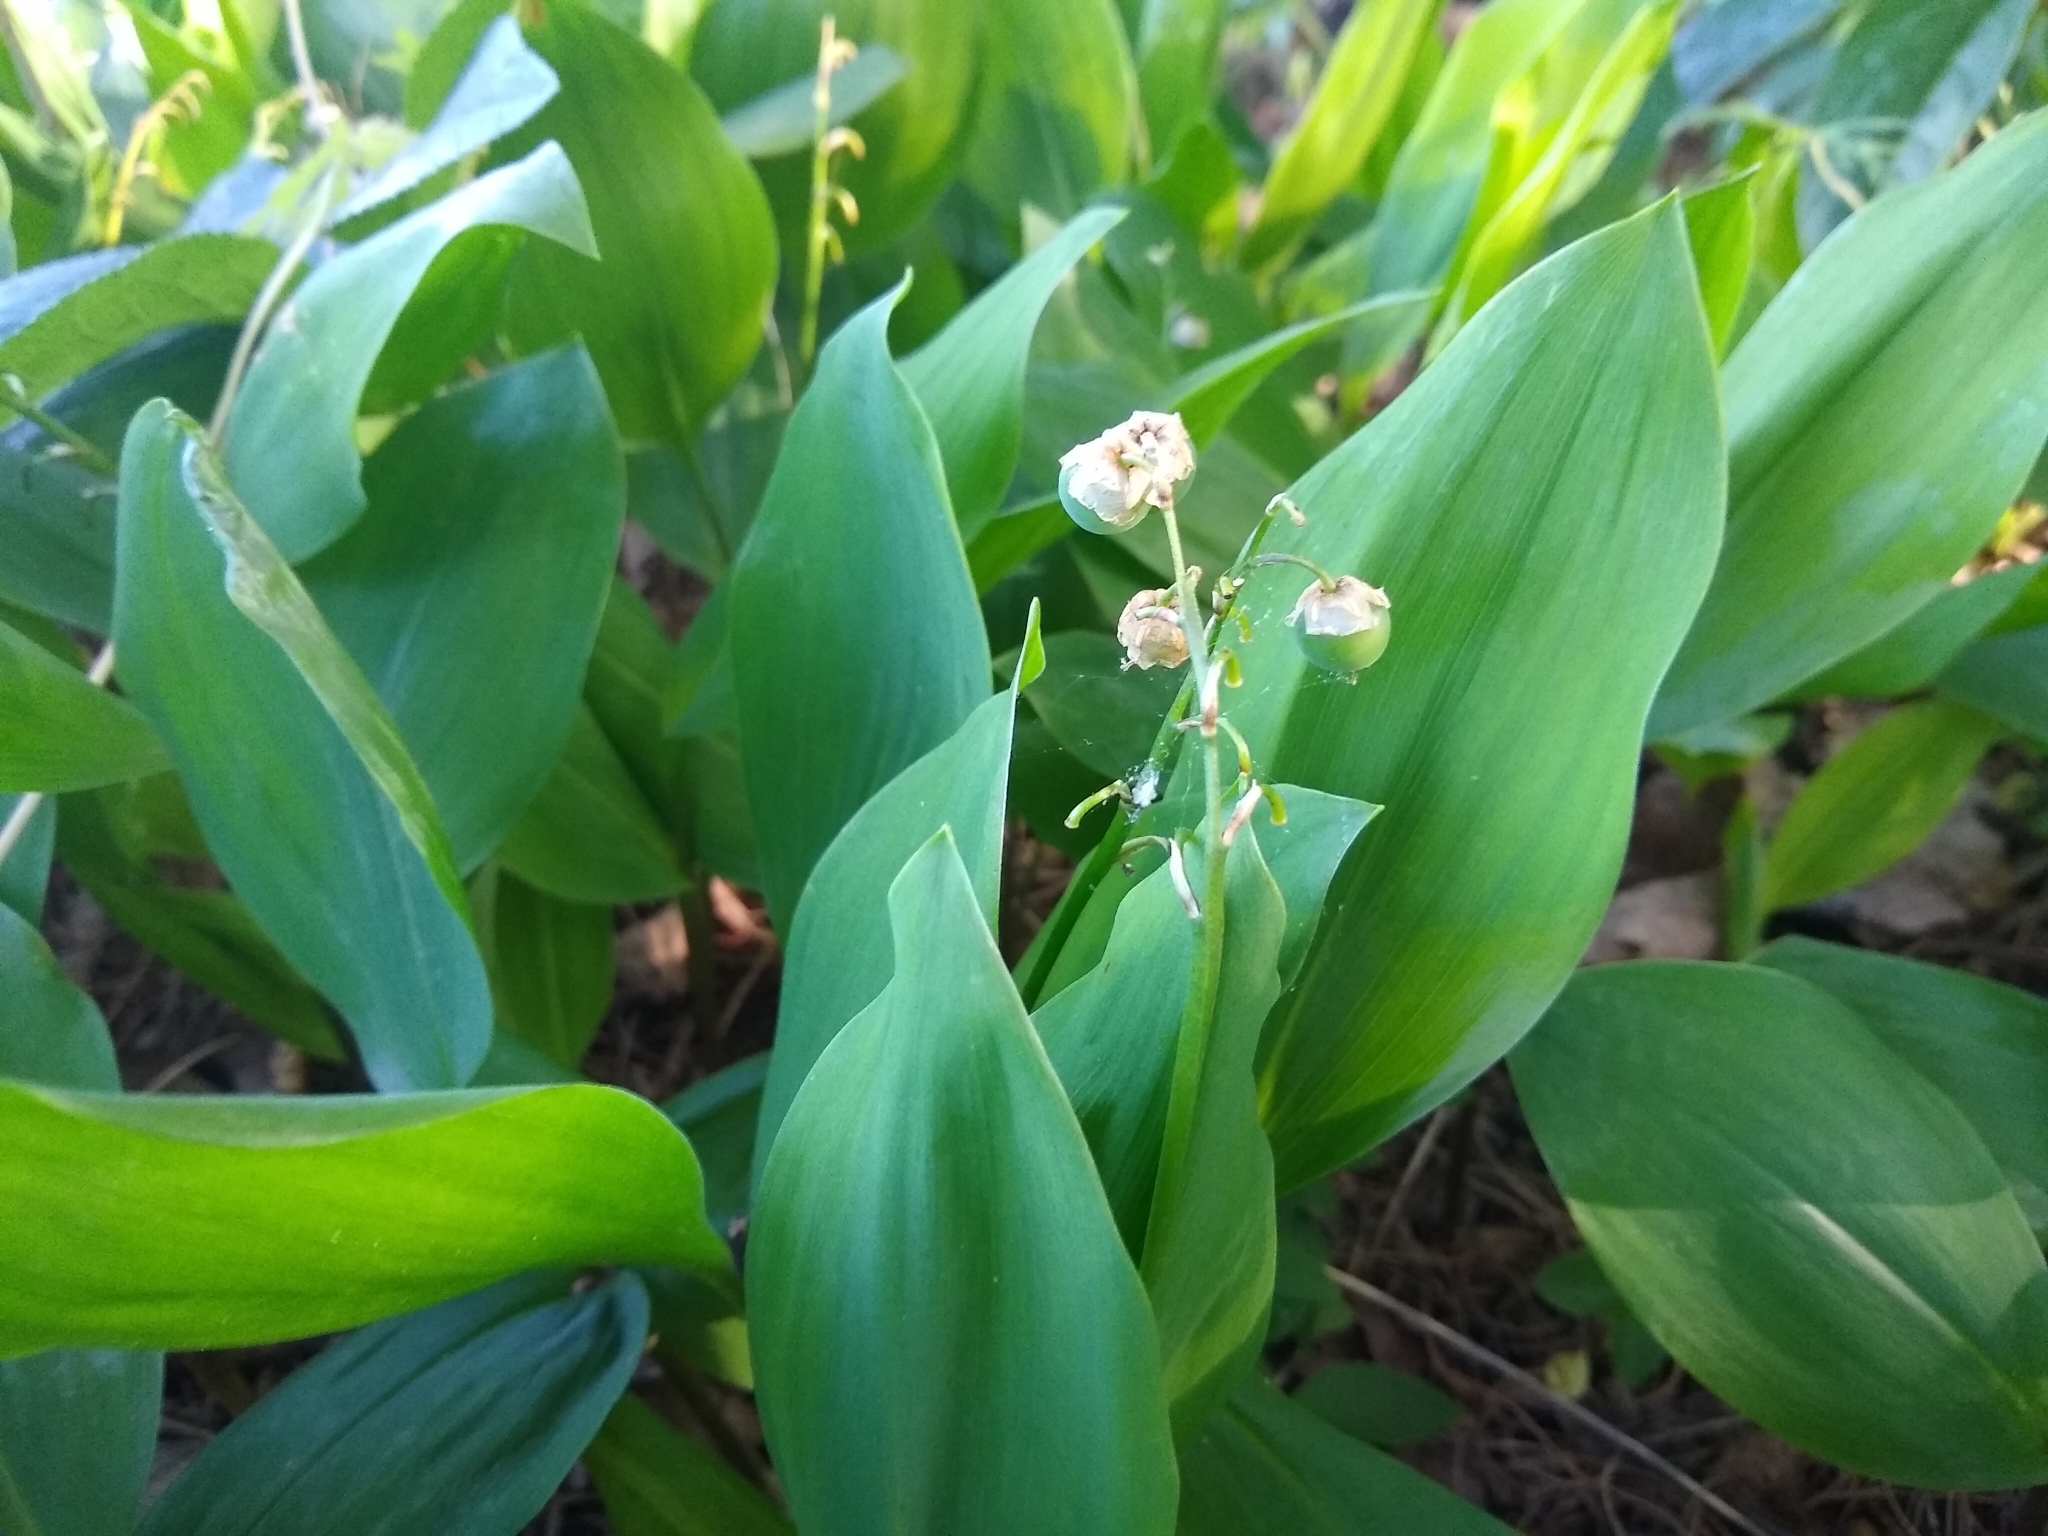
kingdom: Plantae
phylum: Tracheophyta
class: Liliopsida
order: Asparagales
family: Asparagaceae
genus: Convallaria
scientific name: Convallaria majalis
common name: Lily-of-the-valley
